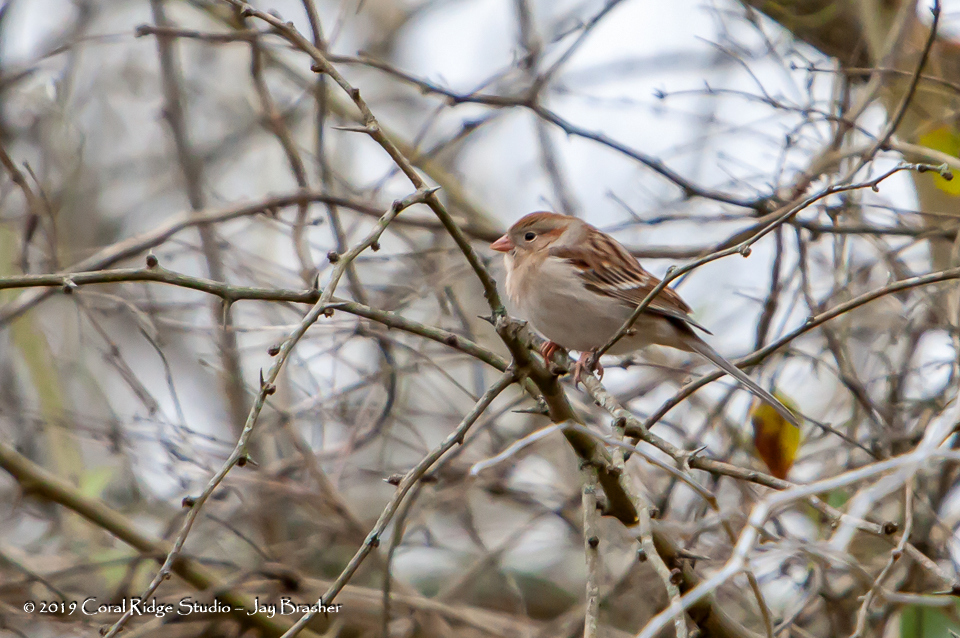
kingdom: Animalia
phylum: Chordata
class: Aves
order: Passeriformes
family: Passerellidae
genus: Spizella
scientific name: Spizella pusilla
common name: Field sparrow
